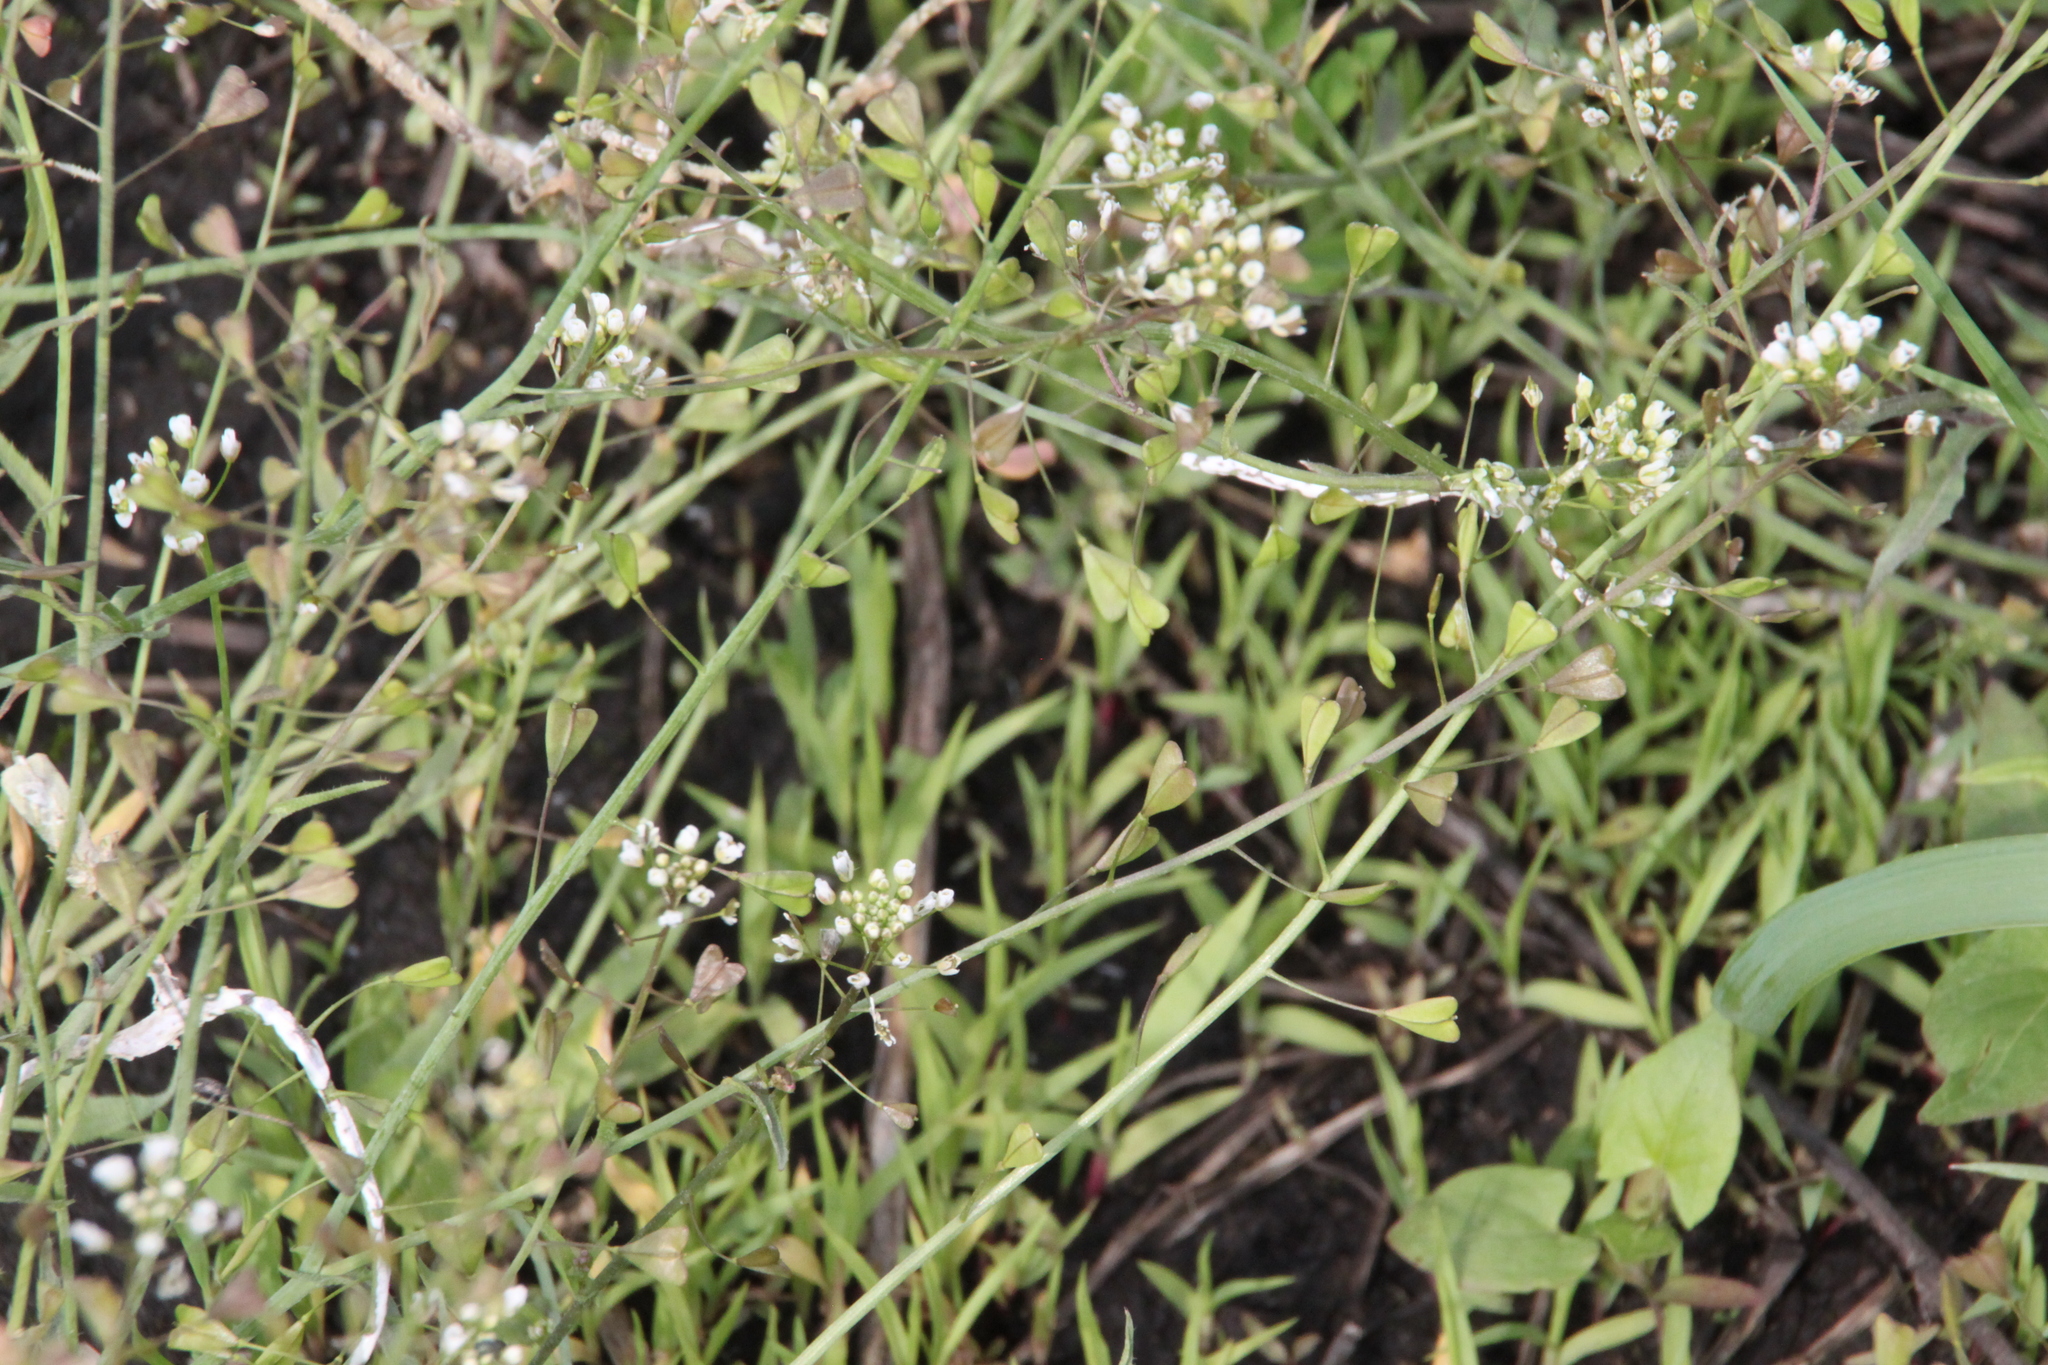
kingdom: Plantae
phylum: Tracheophyta
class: Magnoliopsida
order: Brassicales
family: Brassicaceae
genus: Capsella
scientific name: Capsella bursa-pastoris
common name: Shepherd's purse
